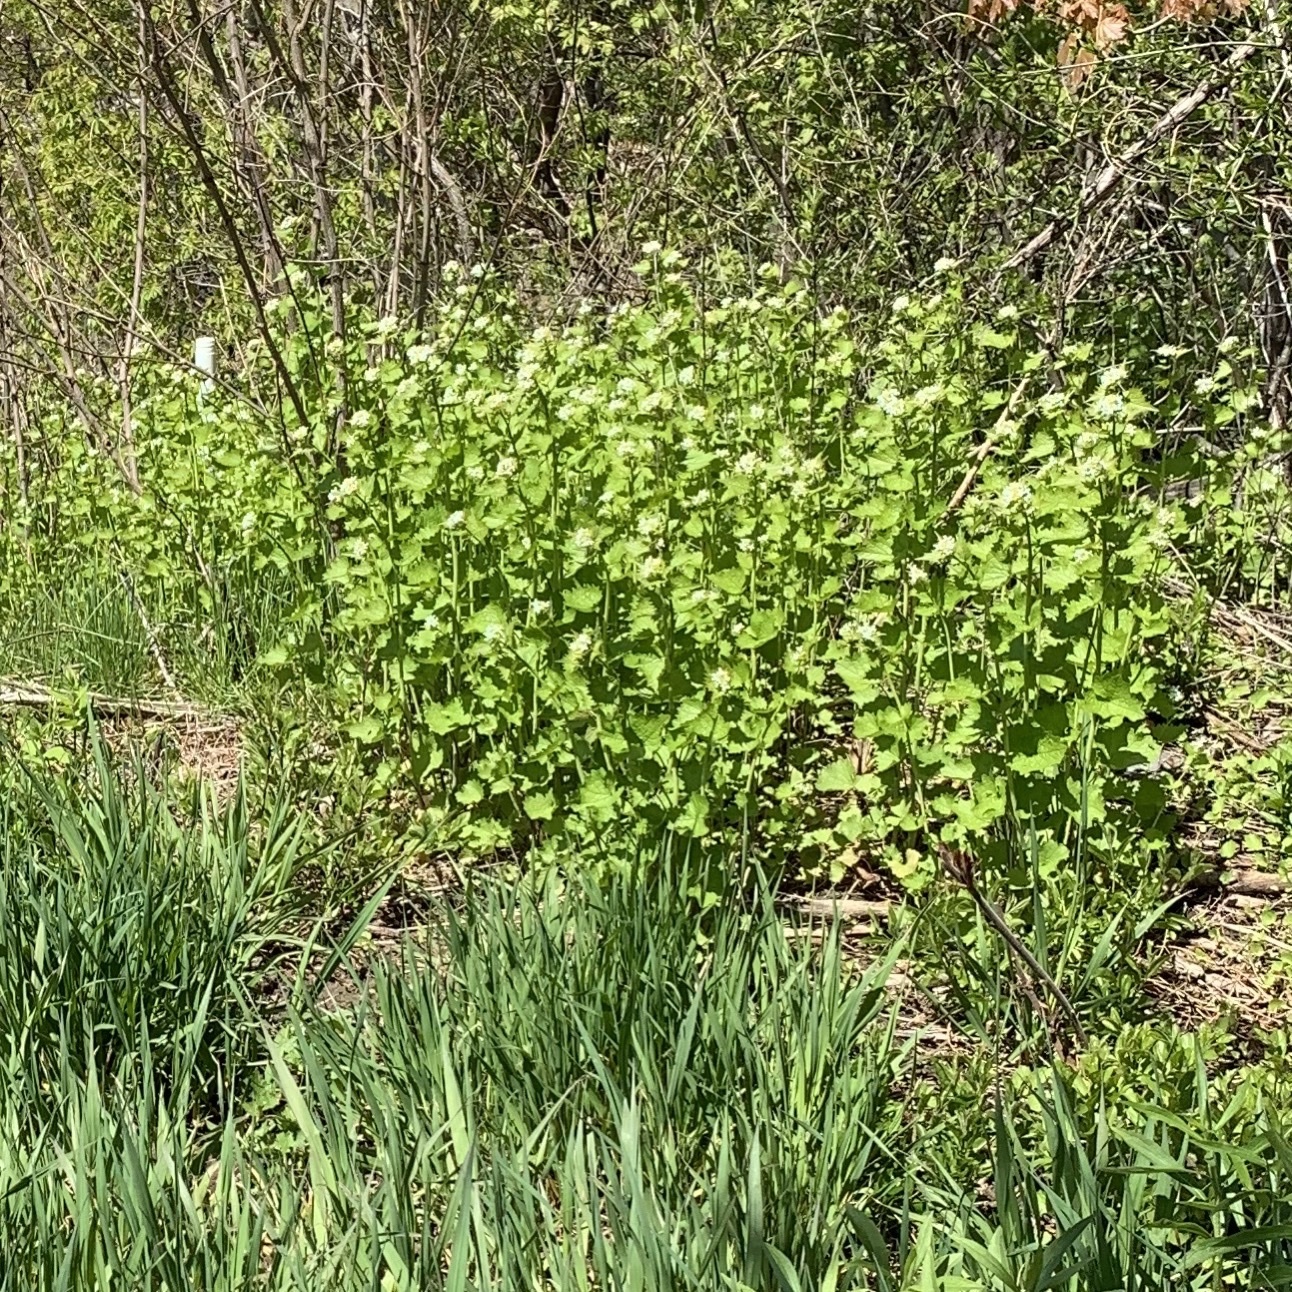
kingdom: Plantae
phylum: Tracheophyta
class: Magnoliopsida
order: Brassicales
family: Brassicaceae
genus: Alliaria
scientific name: Alliaria petiolata
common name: Garlic mustard
